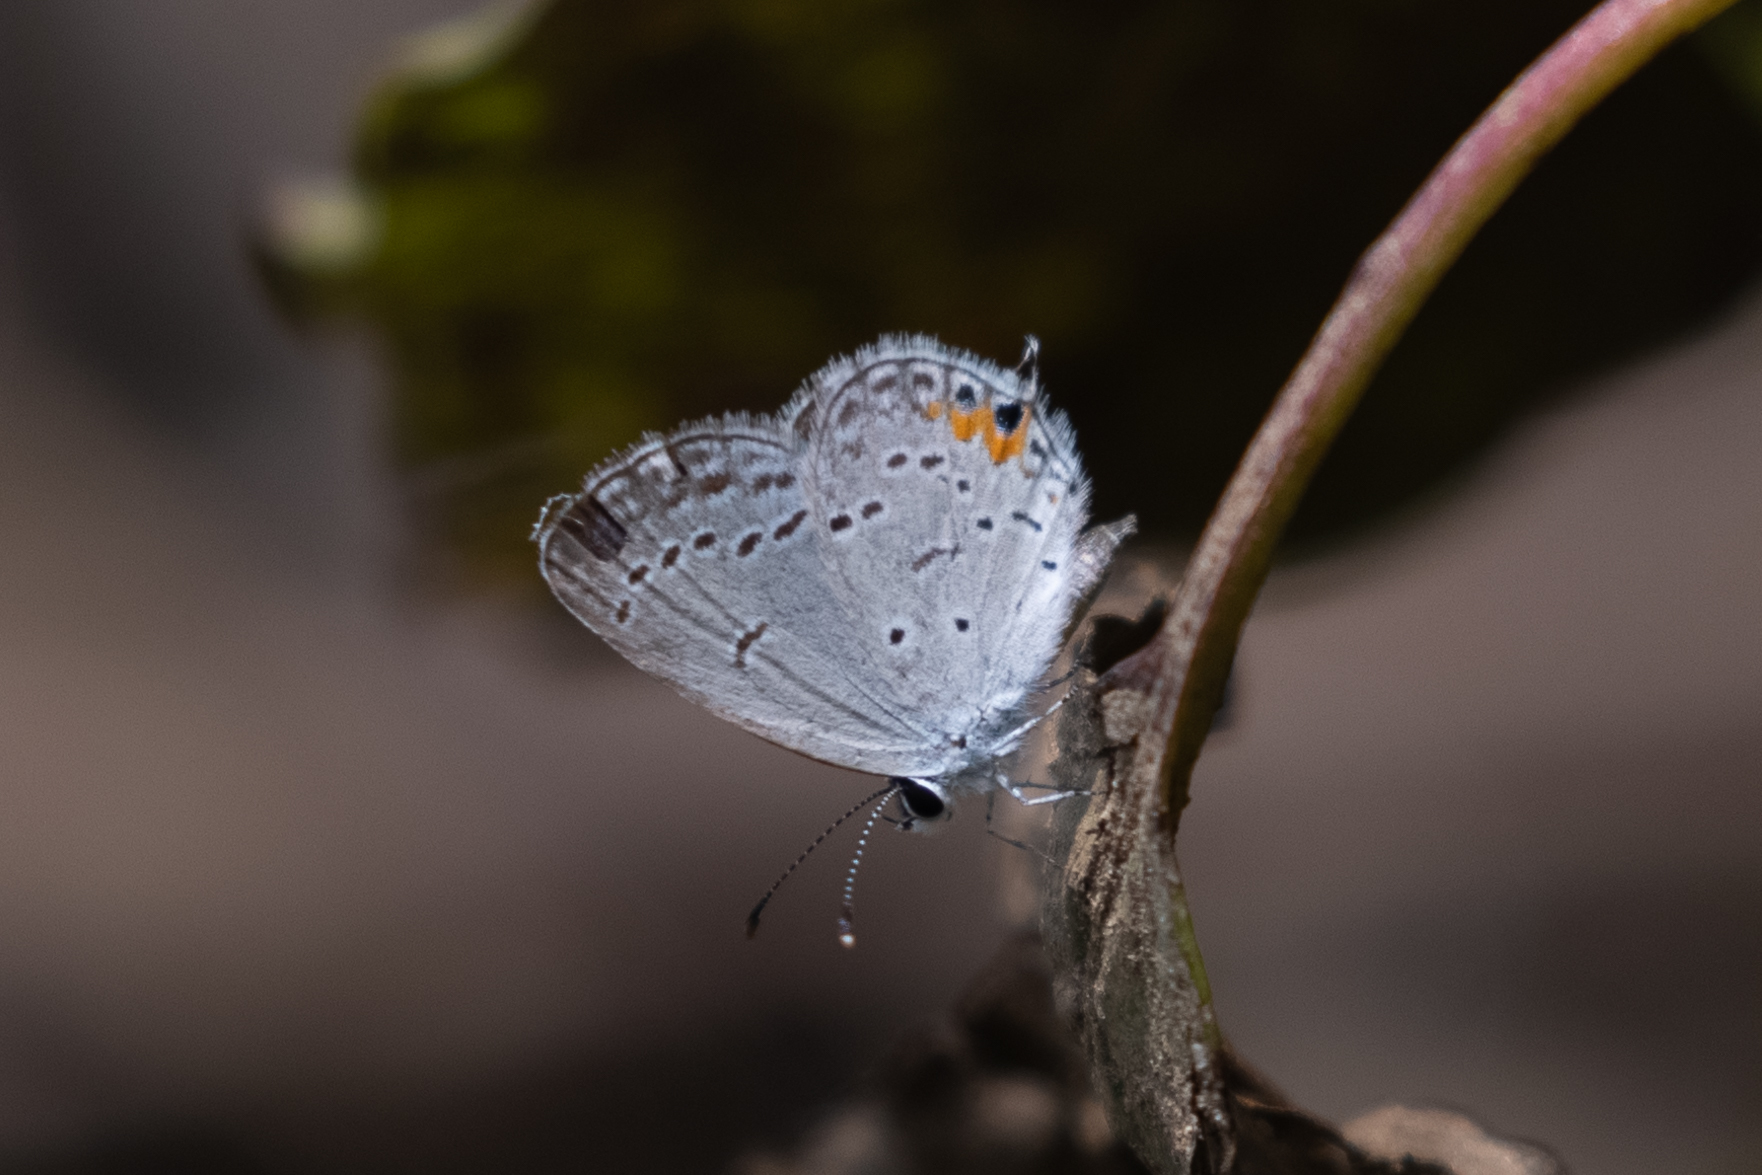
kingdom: Animalia
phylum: Arthropoda
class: Insecta
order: Lepidoptera
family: Lycaenidae
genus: Elkalyce
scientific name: Elkalyce comyntas
